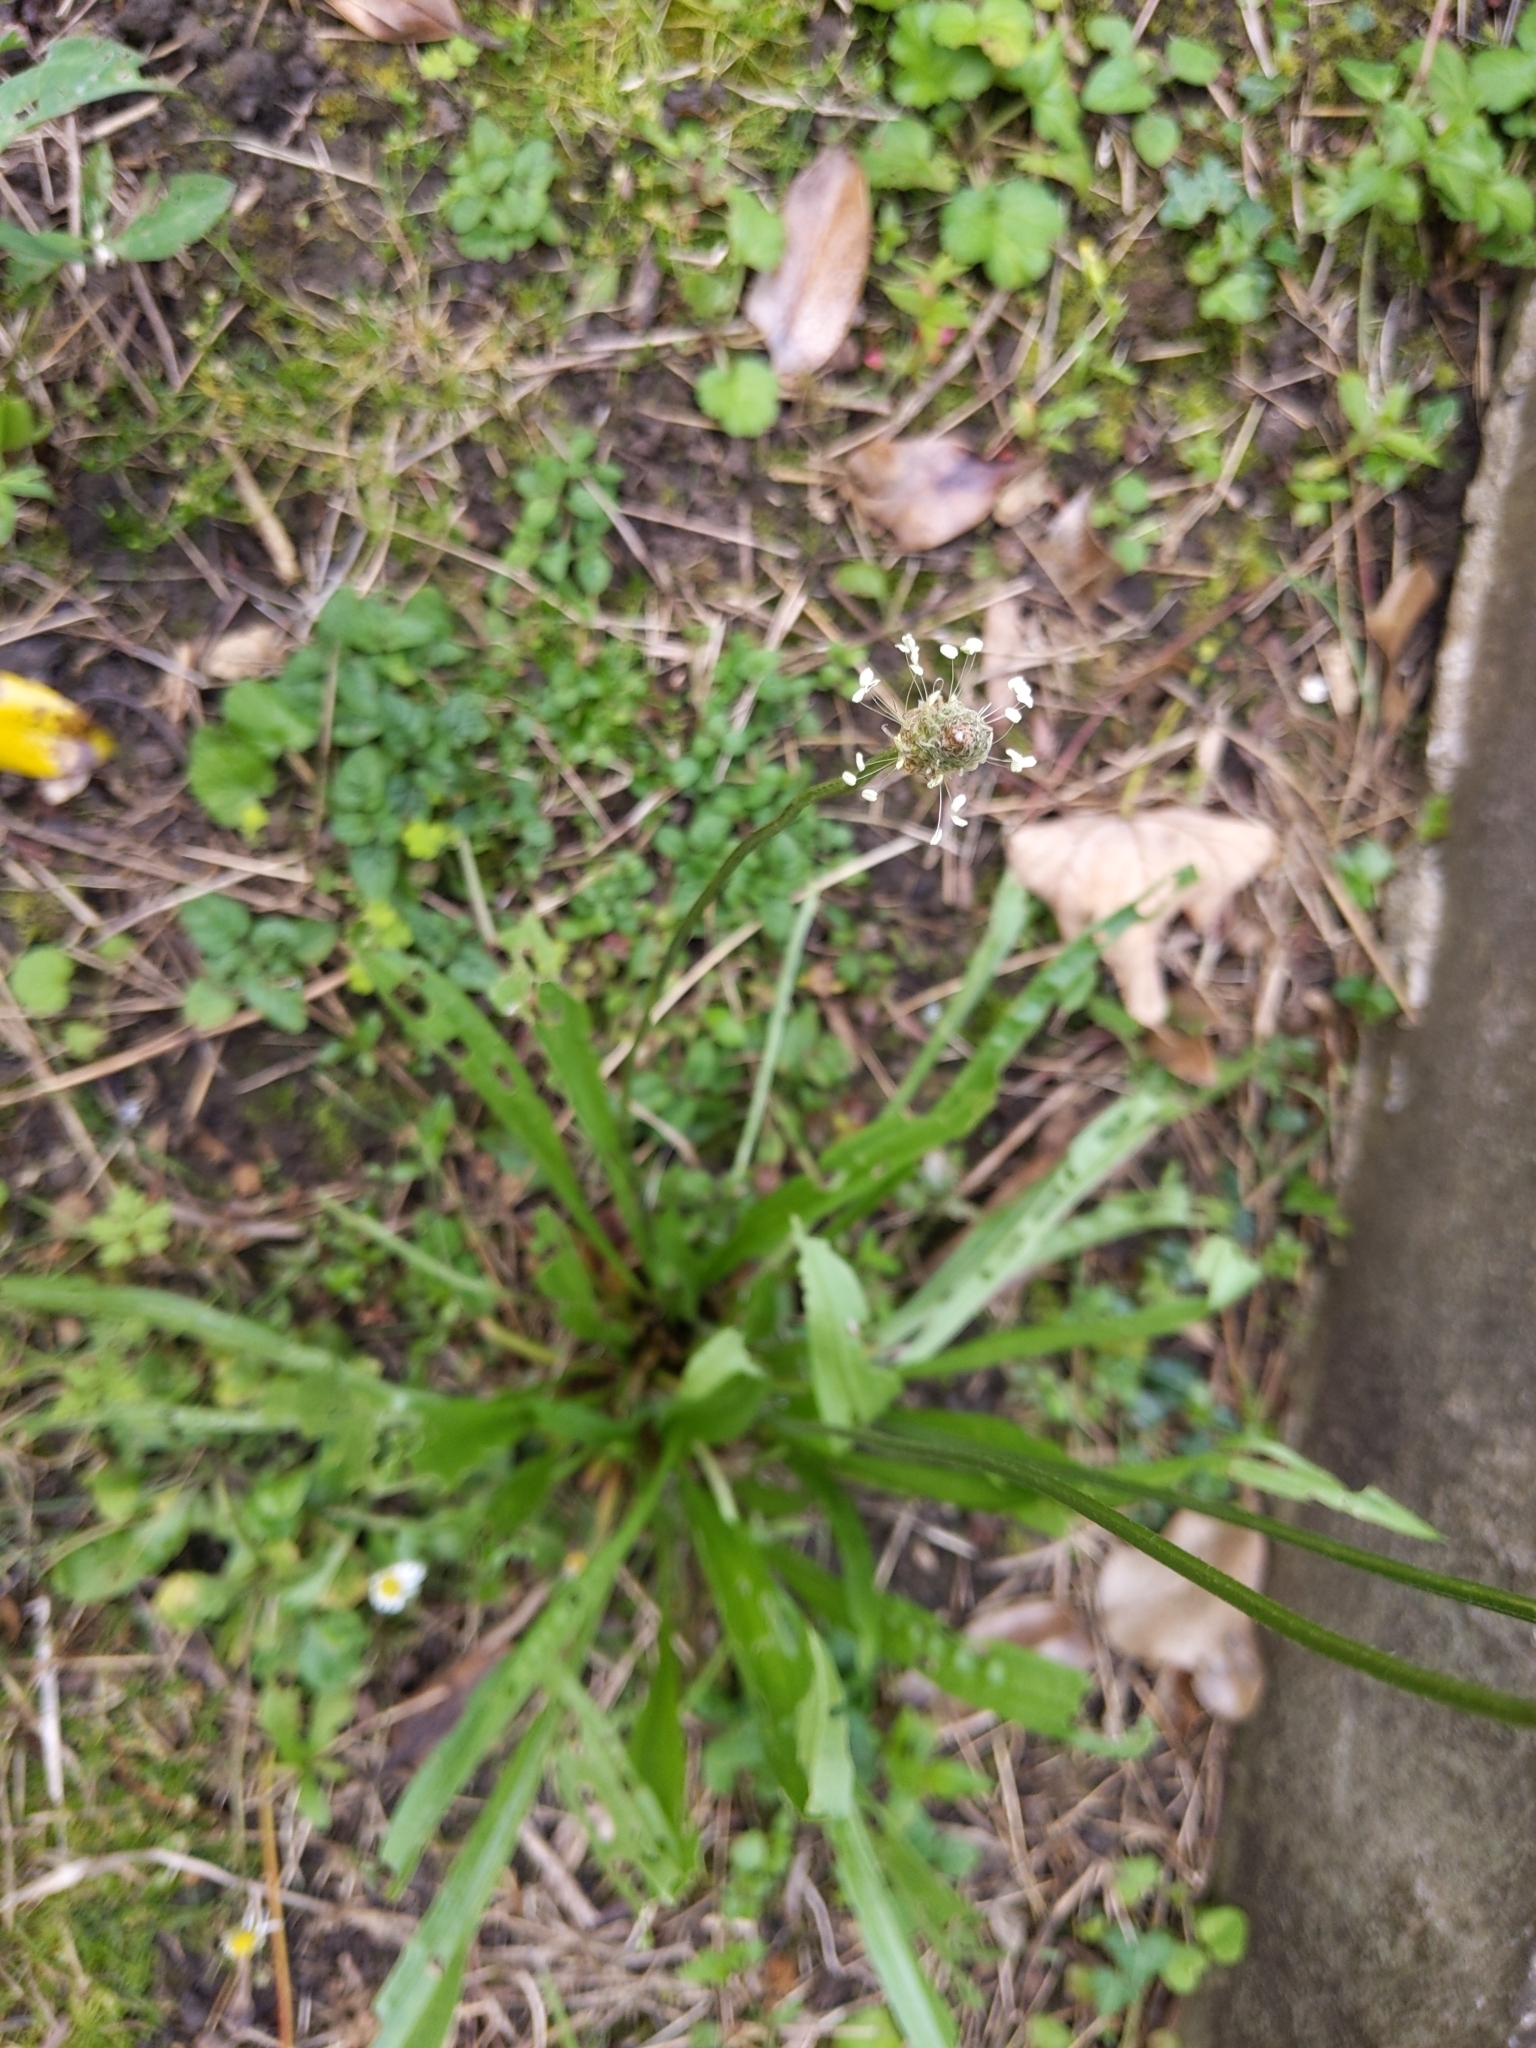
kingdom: Plantae
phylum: Tracheophyta
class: Magnoliopsida
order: Lamiales
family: Plantaginaceae
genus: Plantago
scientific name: Plantago lanceolata
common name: Ribwort plantain
